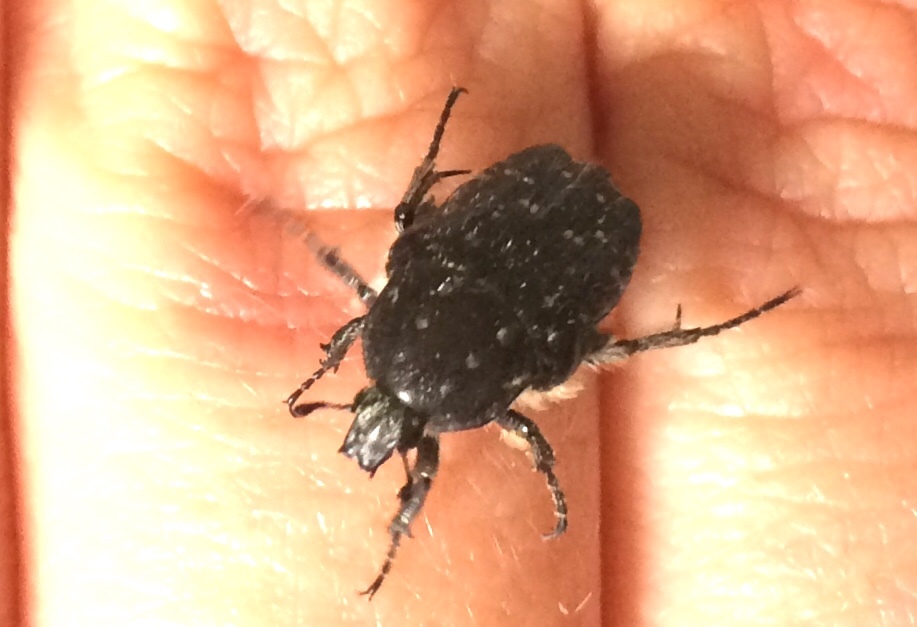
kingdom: Animalia
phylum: Arthropoda
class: Insecta
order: Coleoptera
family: Scarabaeidae
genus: Oxythyrea
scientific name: Oxythyrea funesta
